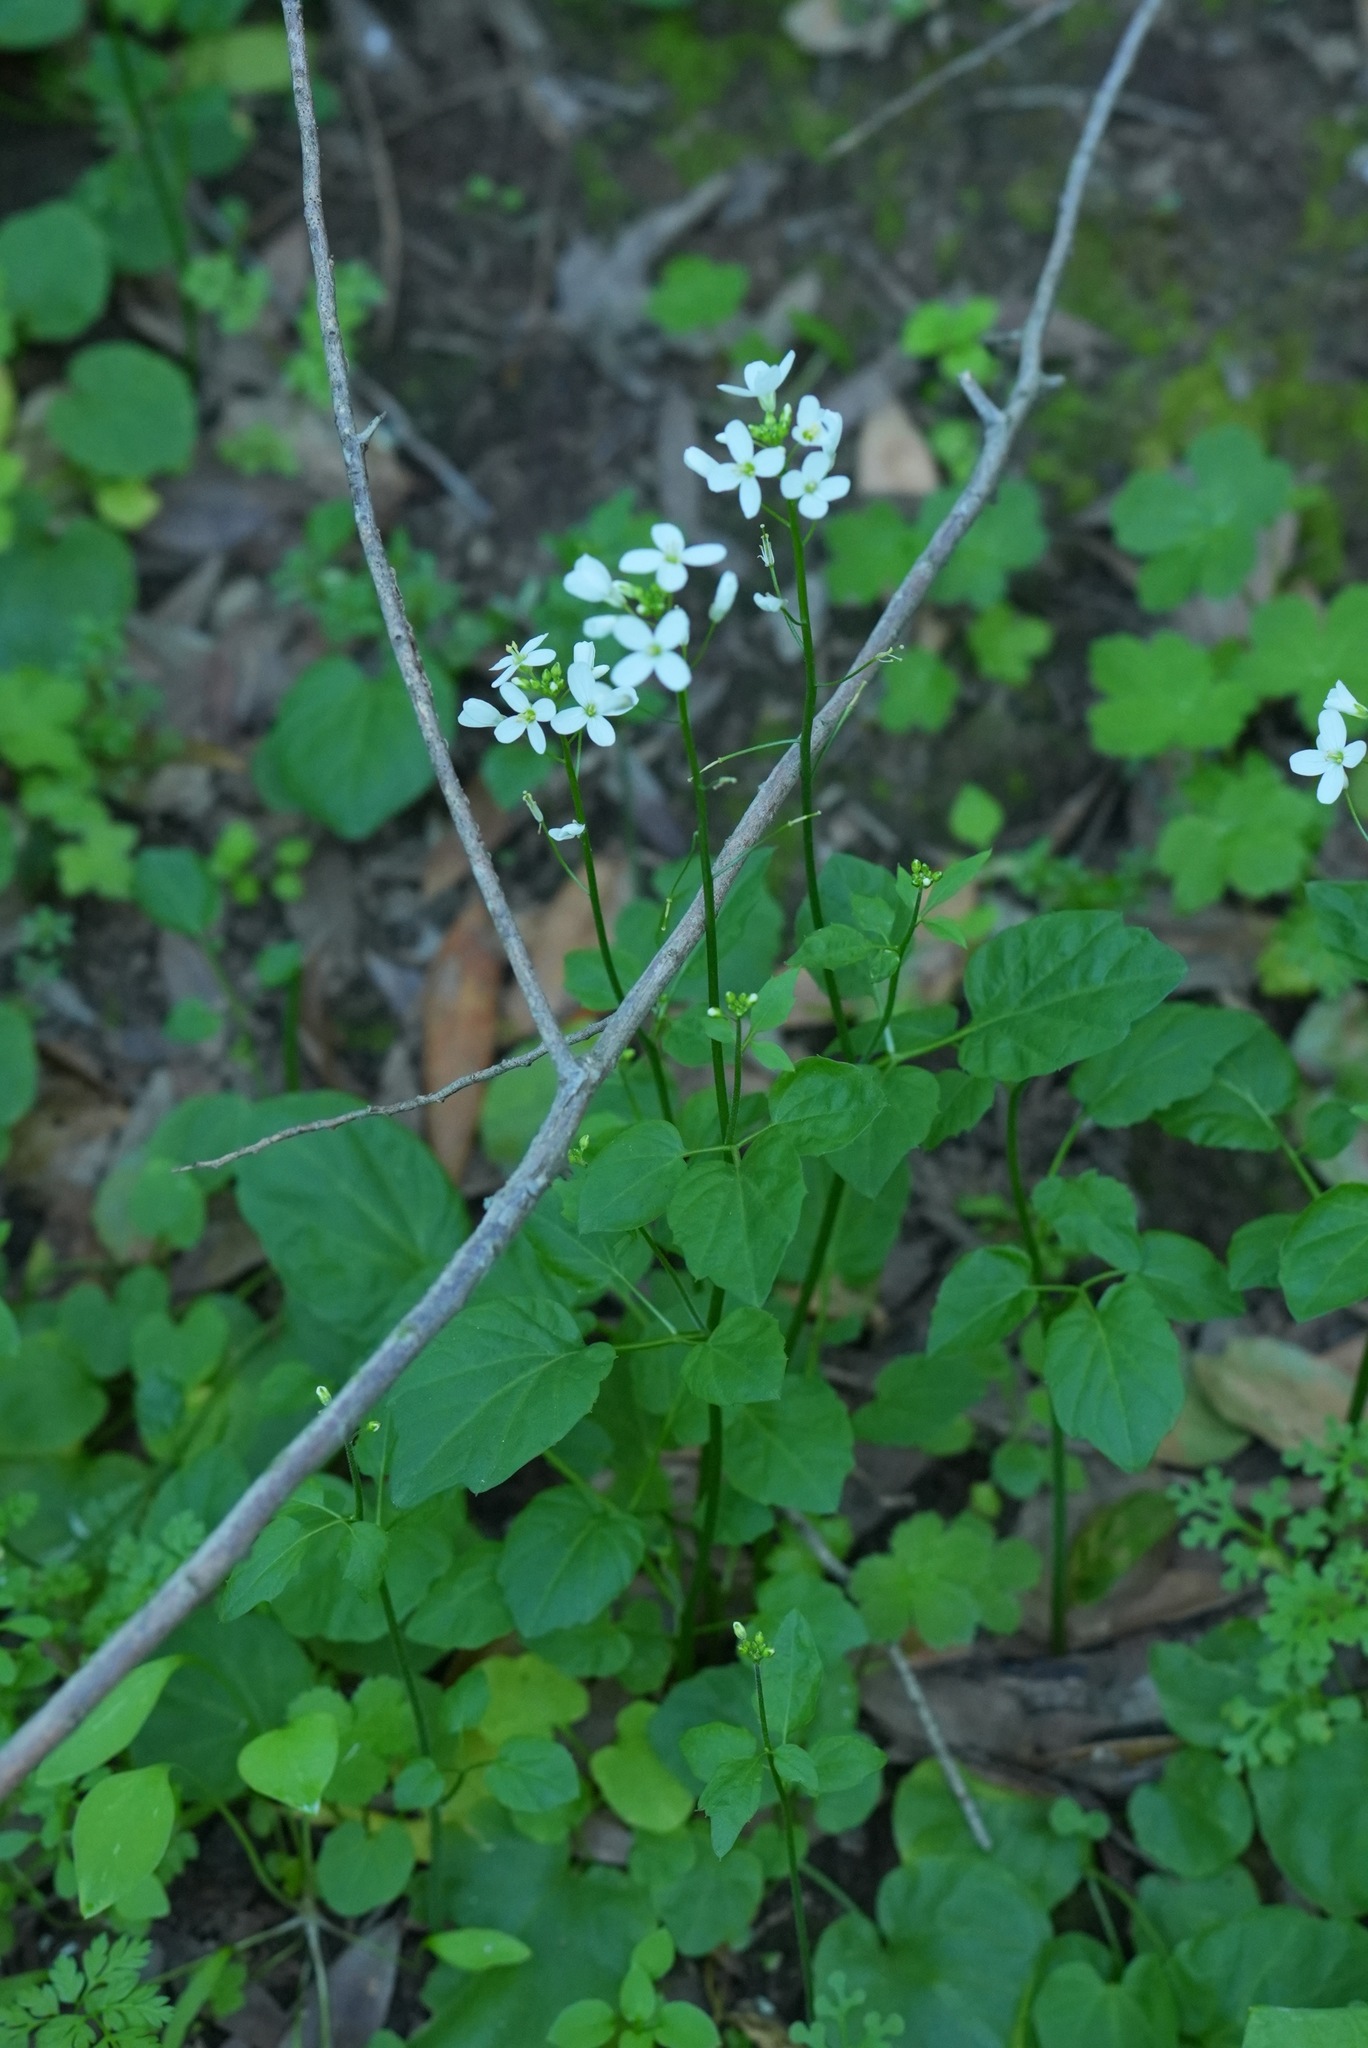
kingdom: Plantae
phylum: Tracheophyta
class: Magnoliopsida
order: Brassicales
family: Brassicaceae
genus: Cardamine
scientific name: Cardamine californica
